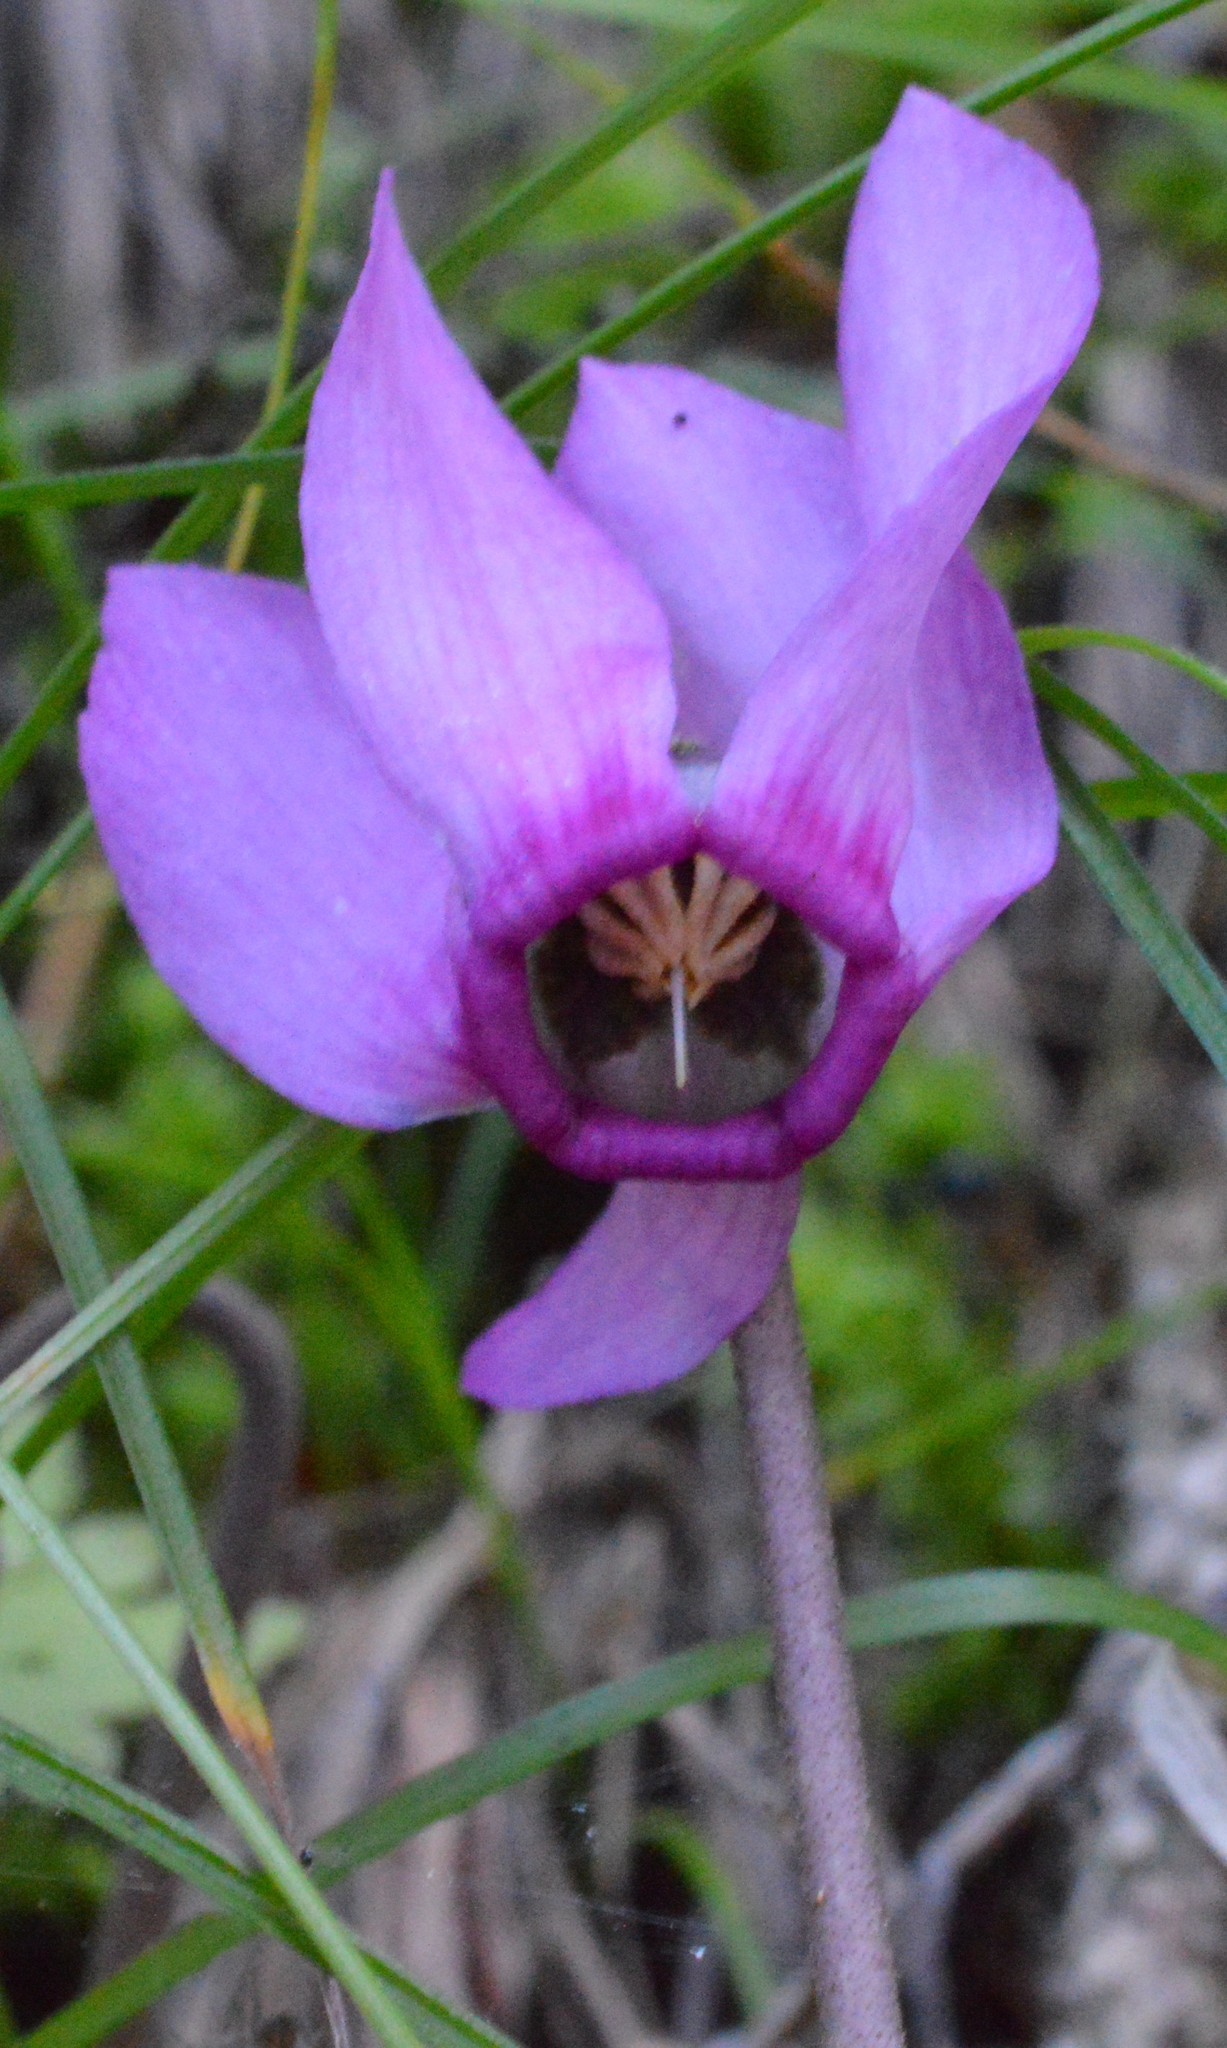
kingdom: Plantae
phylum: Tracheophyta
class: Magnoliopsida
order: Ericales
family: Primulaceae
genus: Cyclamen
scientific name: Cyclamen purpurascens
